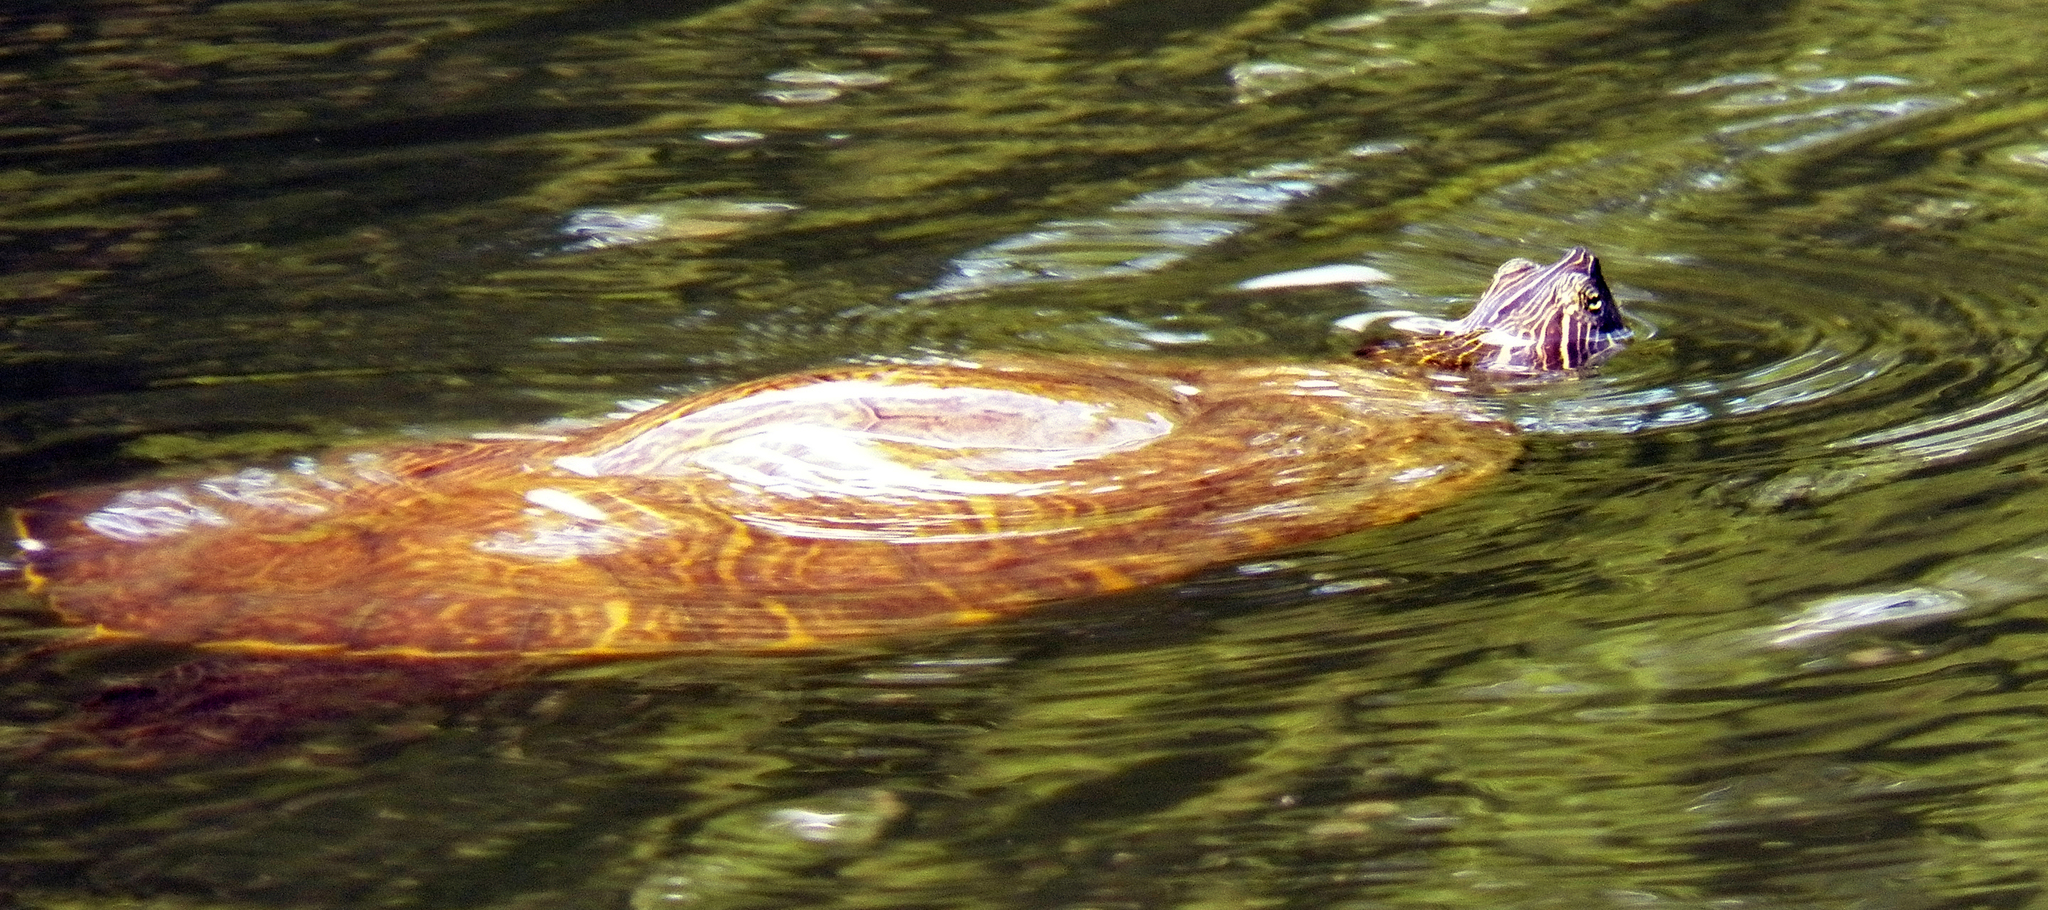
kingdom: Animalia
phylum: Chordata
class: Testudines
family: Emydidae
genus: Trachemys
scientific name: Trachemys scripta
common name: Slider
